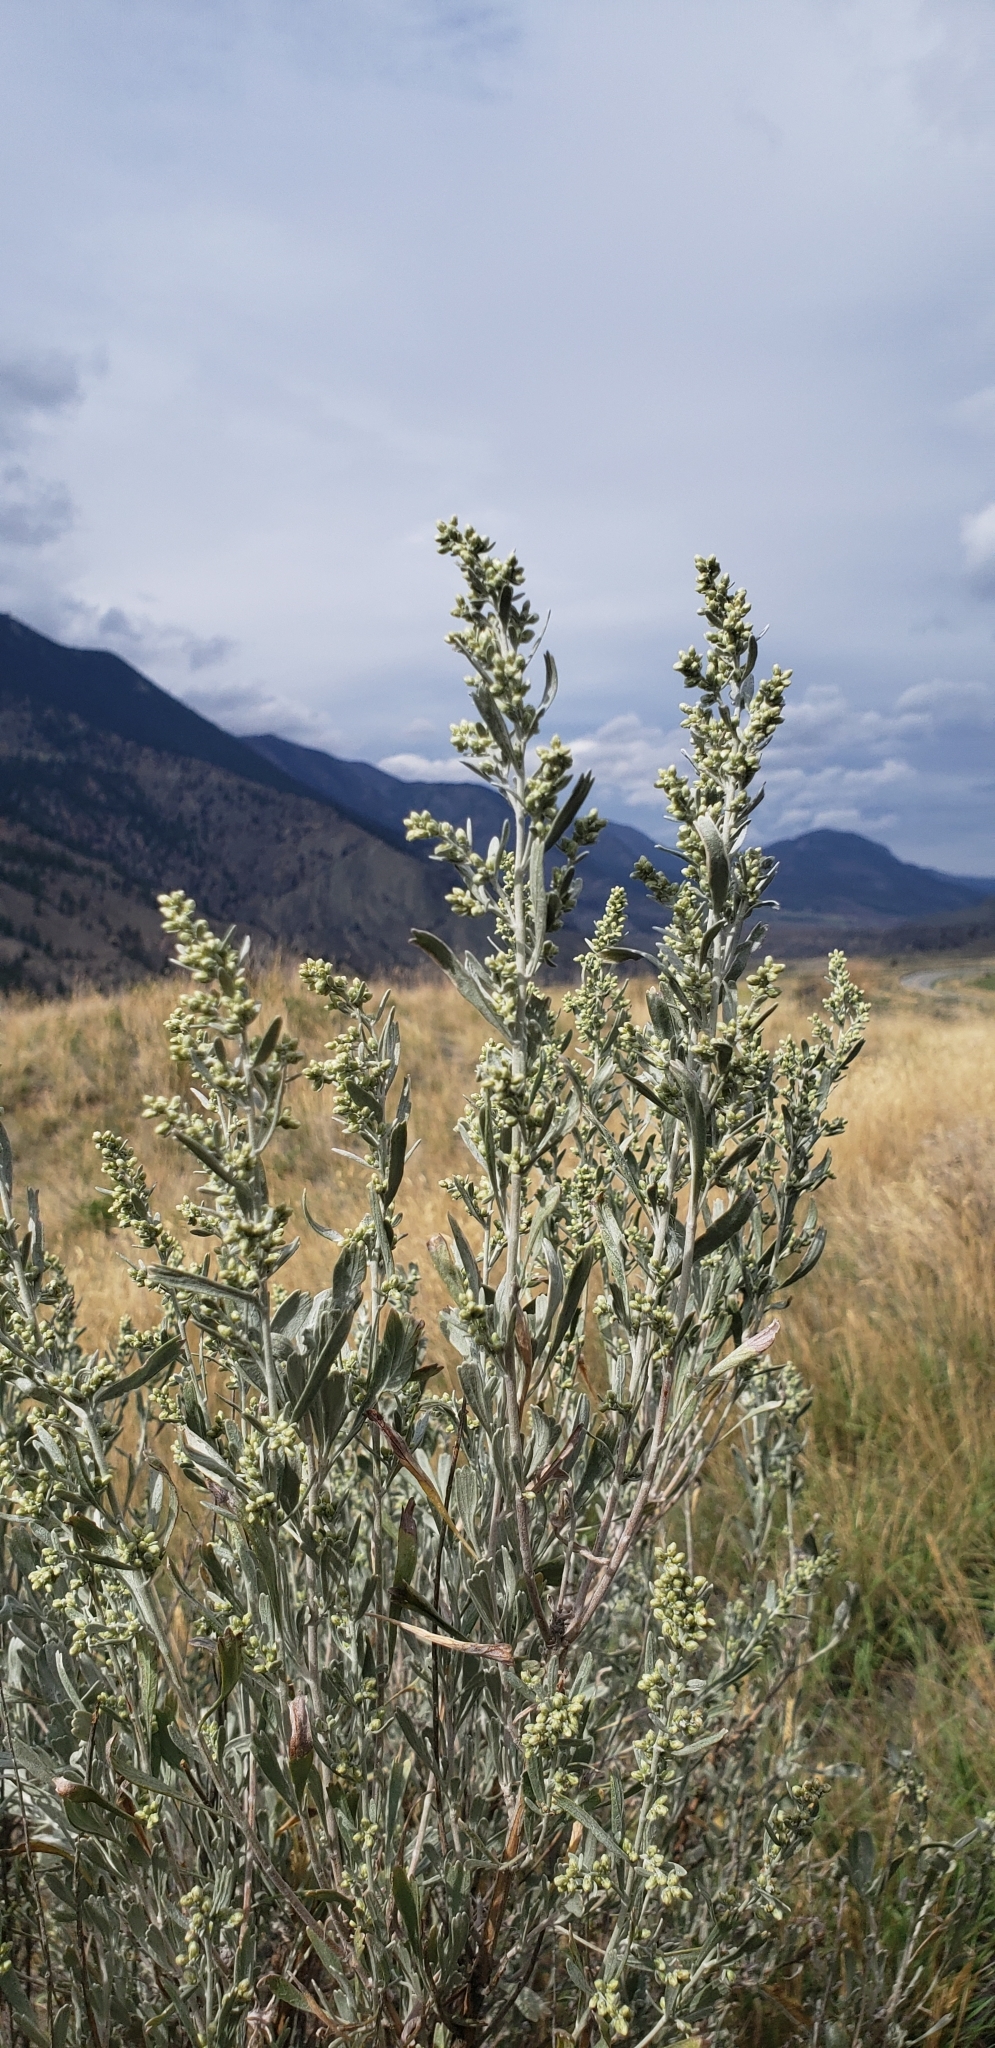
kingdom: Plantae
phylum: Tracheophyta
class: Magnoliopsida
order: Asterales
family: Asteraceae
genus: Artemisia
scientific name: Artemisia tridentata
